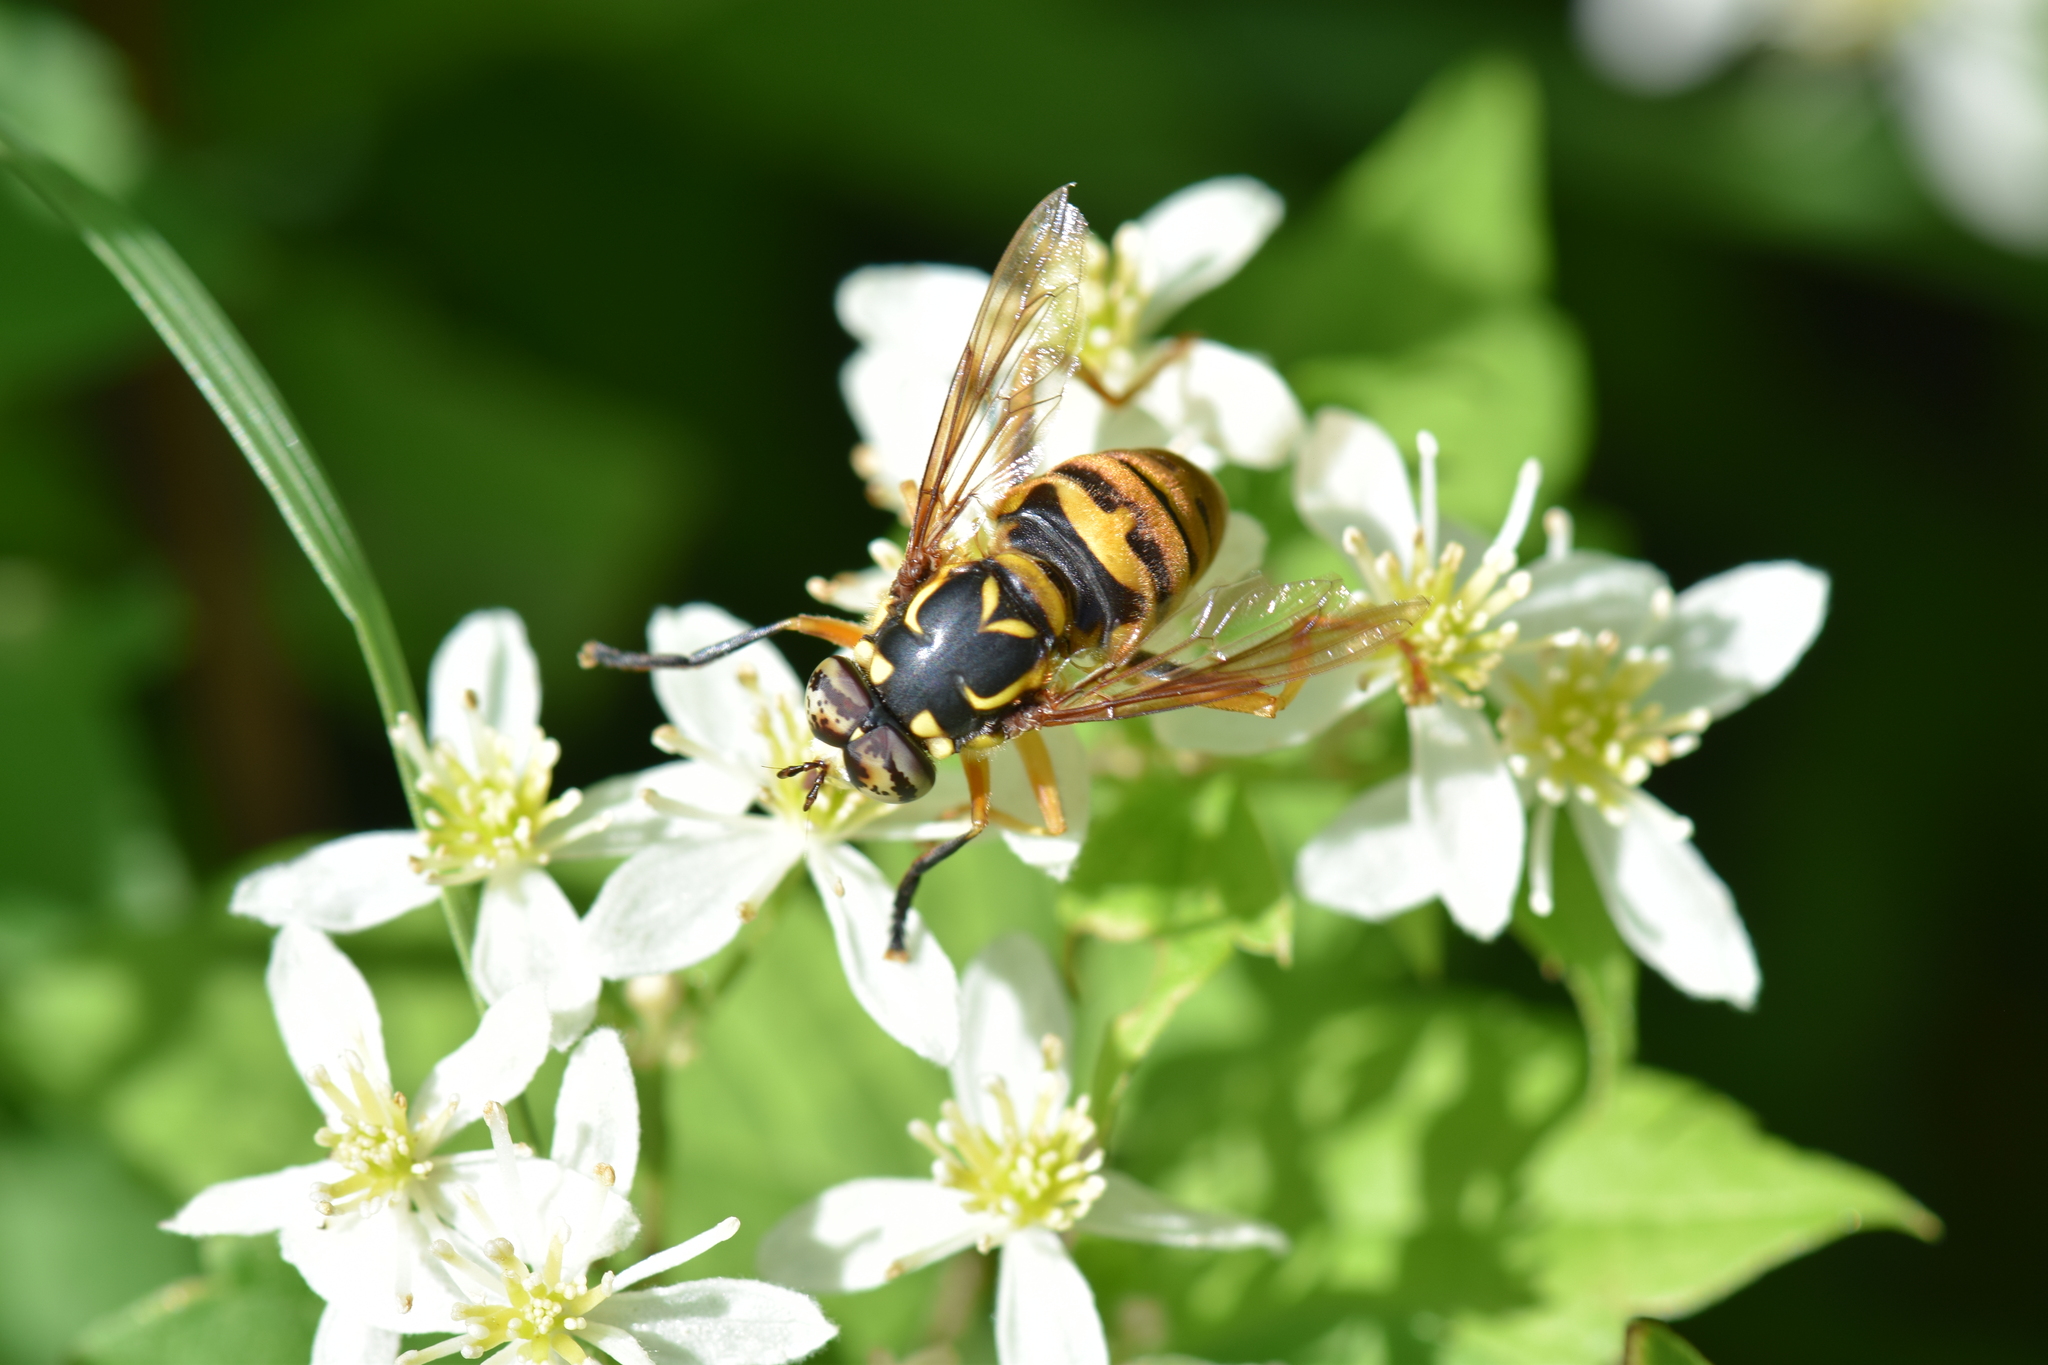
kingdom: Animalia
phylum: Arthropoda
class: Insecta
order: Diptera
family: Syrphidae
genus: Spilomyia
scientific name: Spilomyia alcimus
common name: Broad-banded hornet fly
